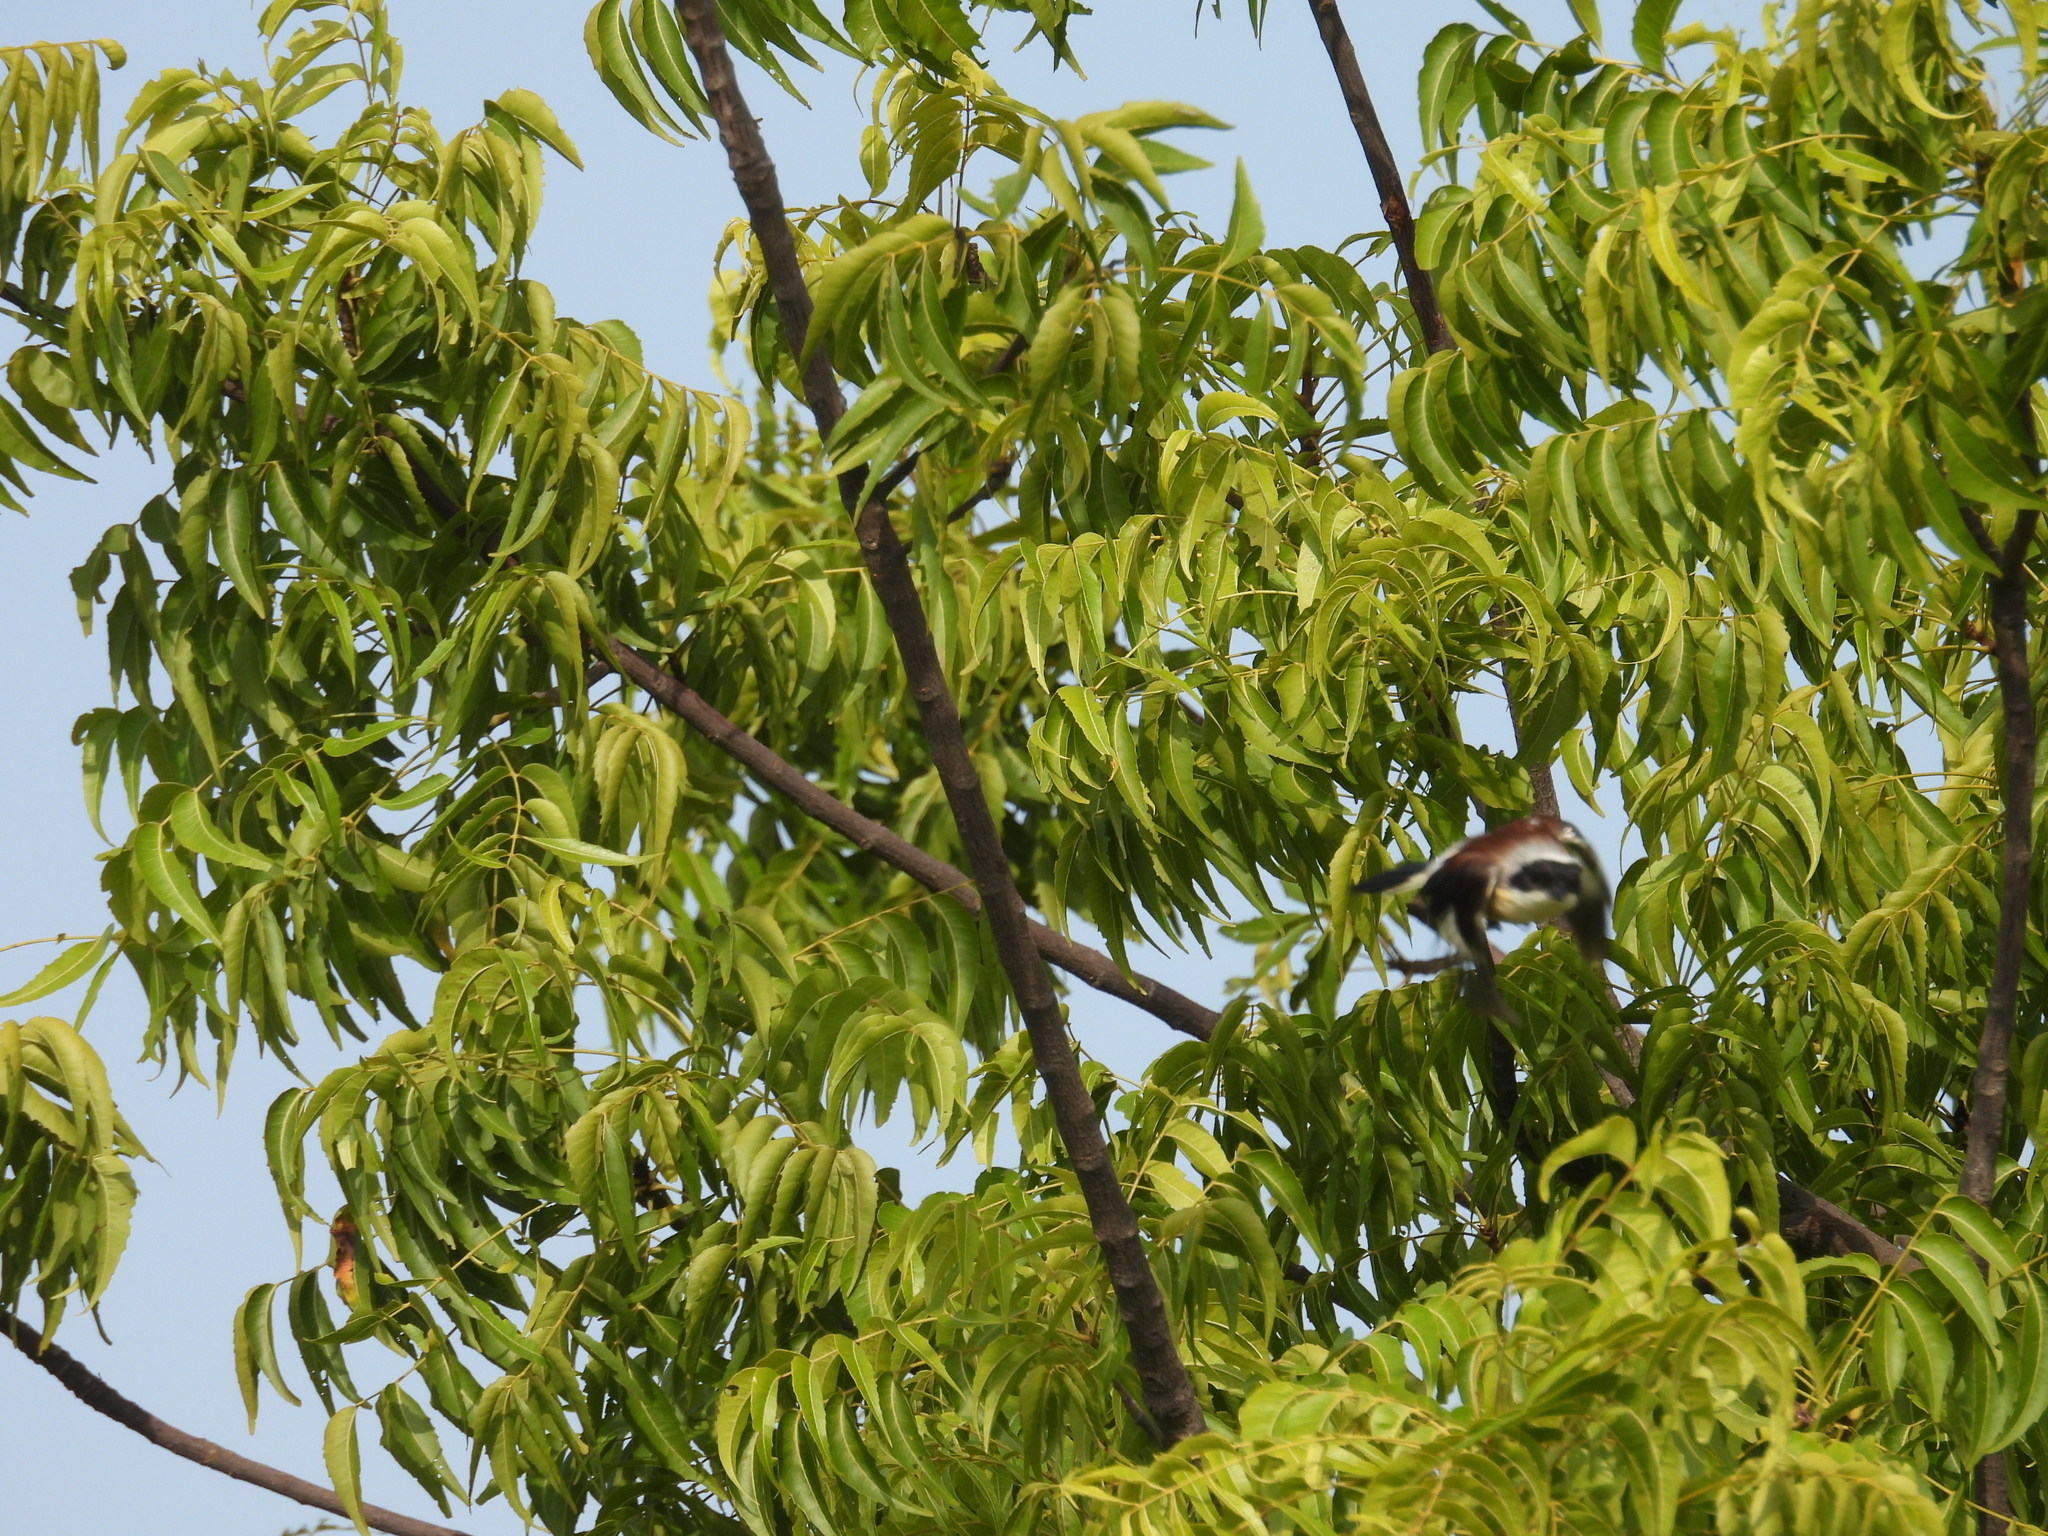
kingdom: Animalia
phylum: Chordata
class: Aves
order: Passeriformes
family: Laniidae
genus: Lanius
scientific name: Lanius vittatus
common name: Bay-backed shrike
